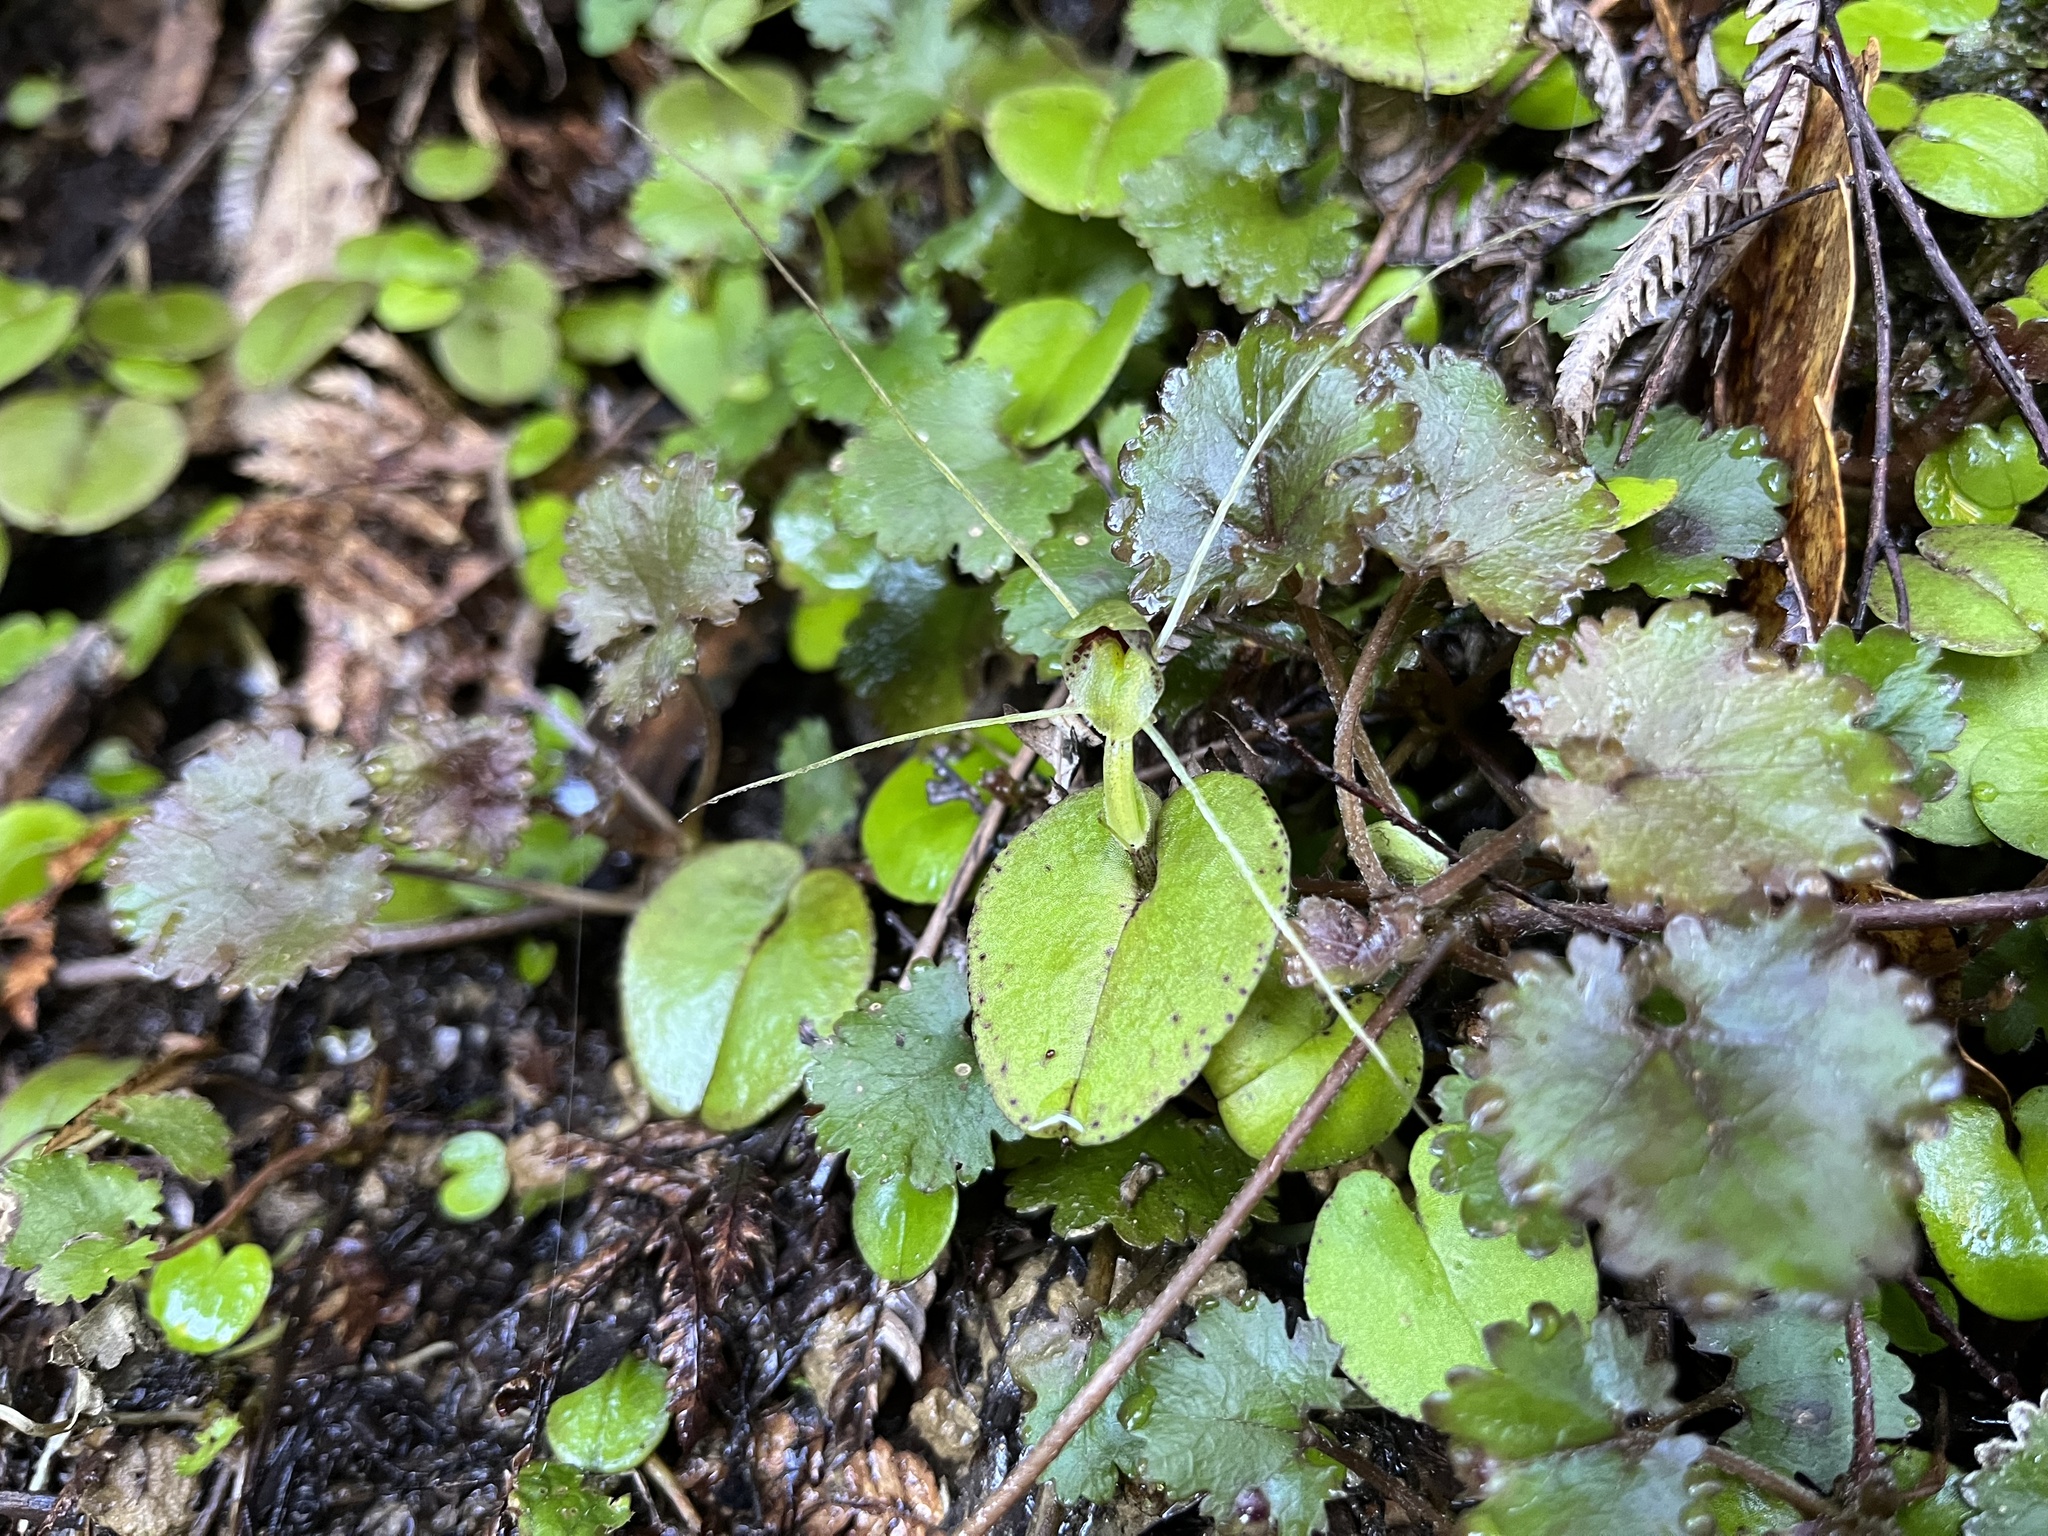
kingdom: Plantae
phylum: Tracheophyta
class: Liliopsida
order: Asparagales
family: Orchidaceae
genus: Corybas
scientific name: Corybas papa
